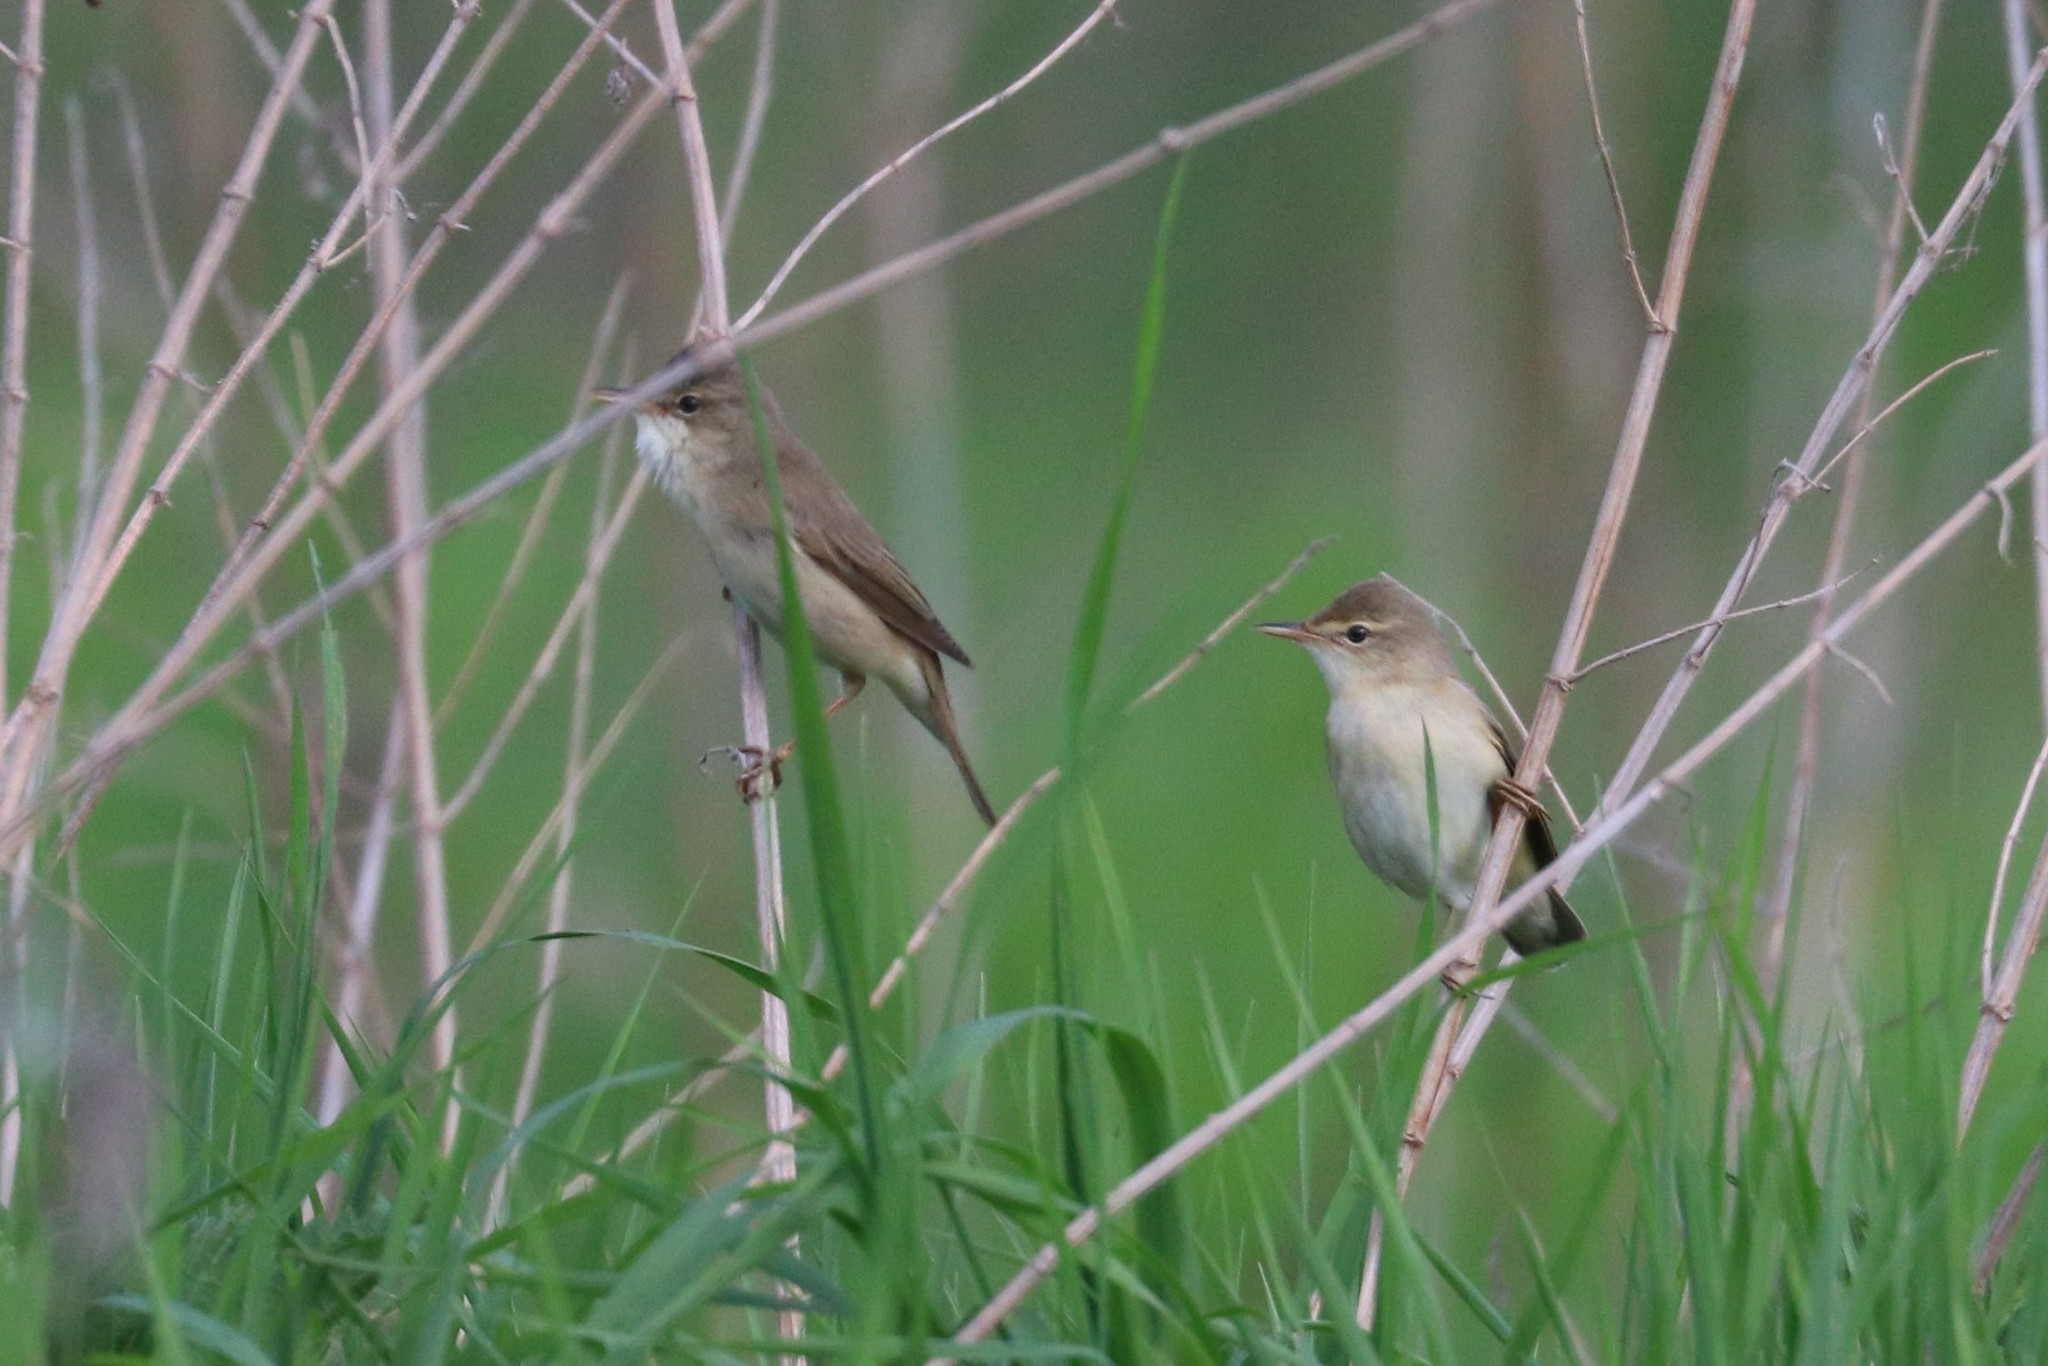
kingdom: Animalia
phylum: Chordata
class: Aves
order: Passeriformes
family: Acrocephalidae
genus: Acrocephalus
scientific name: Acrocephalus palustris
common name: Marsh warbler
